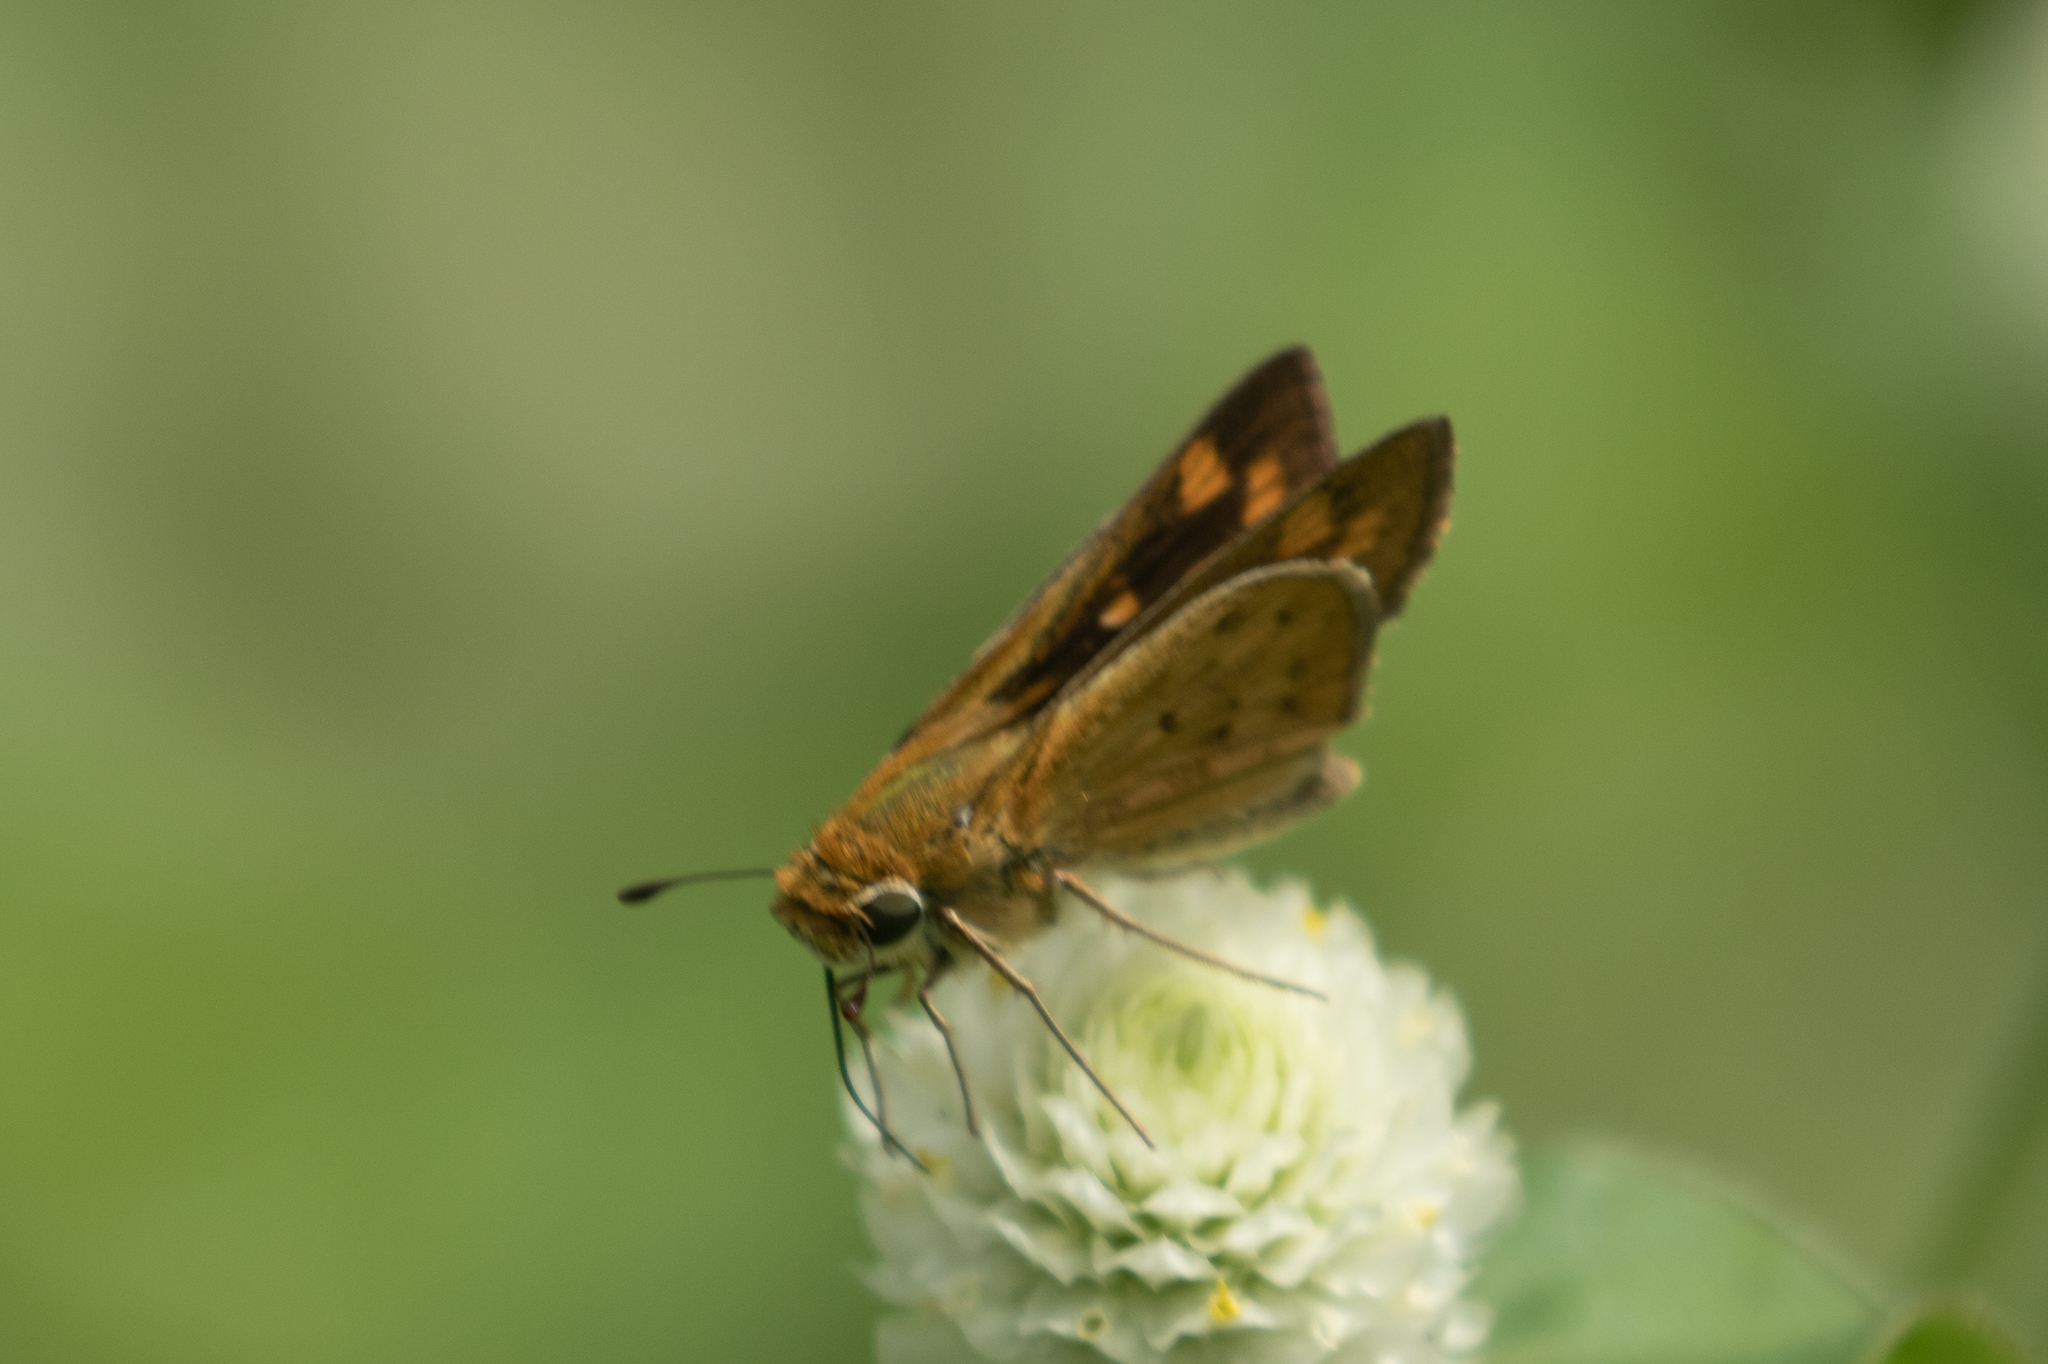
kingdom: Animalia
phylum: Arthropoda
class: Insecta
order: Lepidoptera
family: Hesperiidae
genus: Hylephila
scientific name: Hylephila phyleus
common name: Fiery skipper
